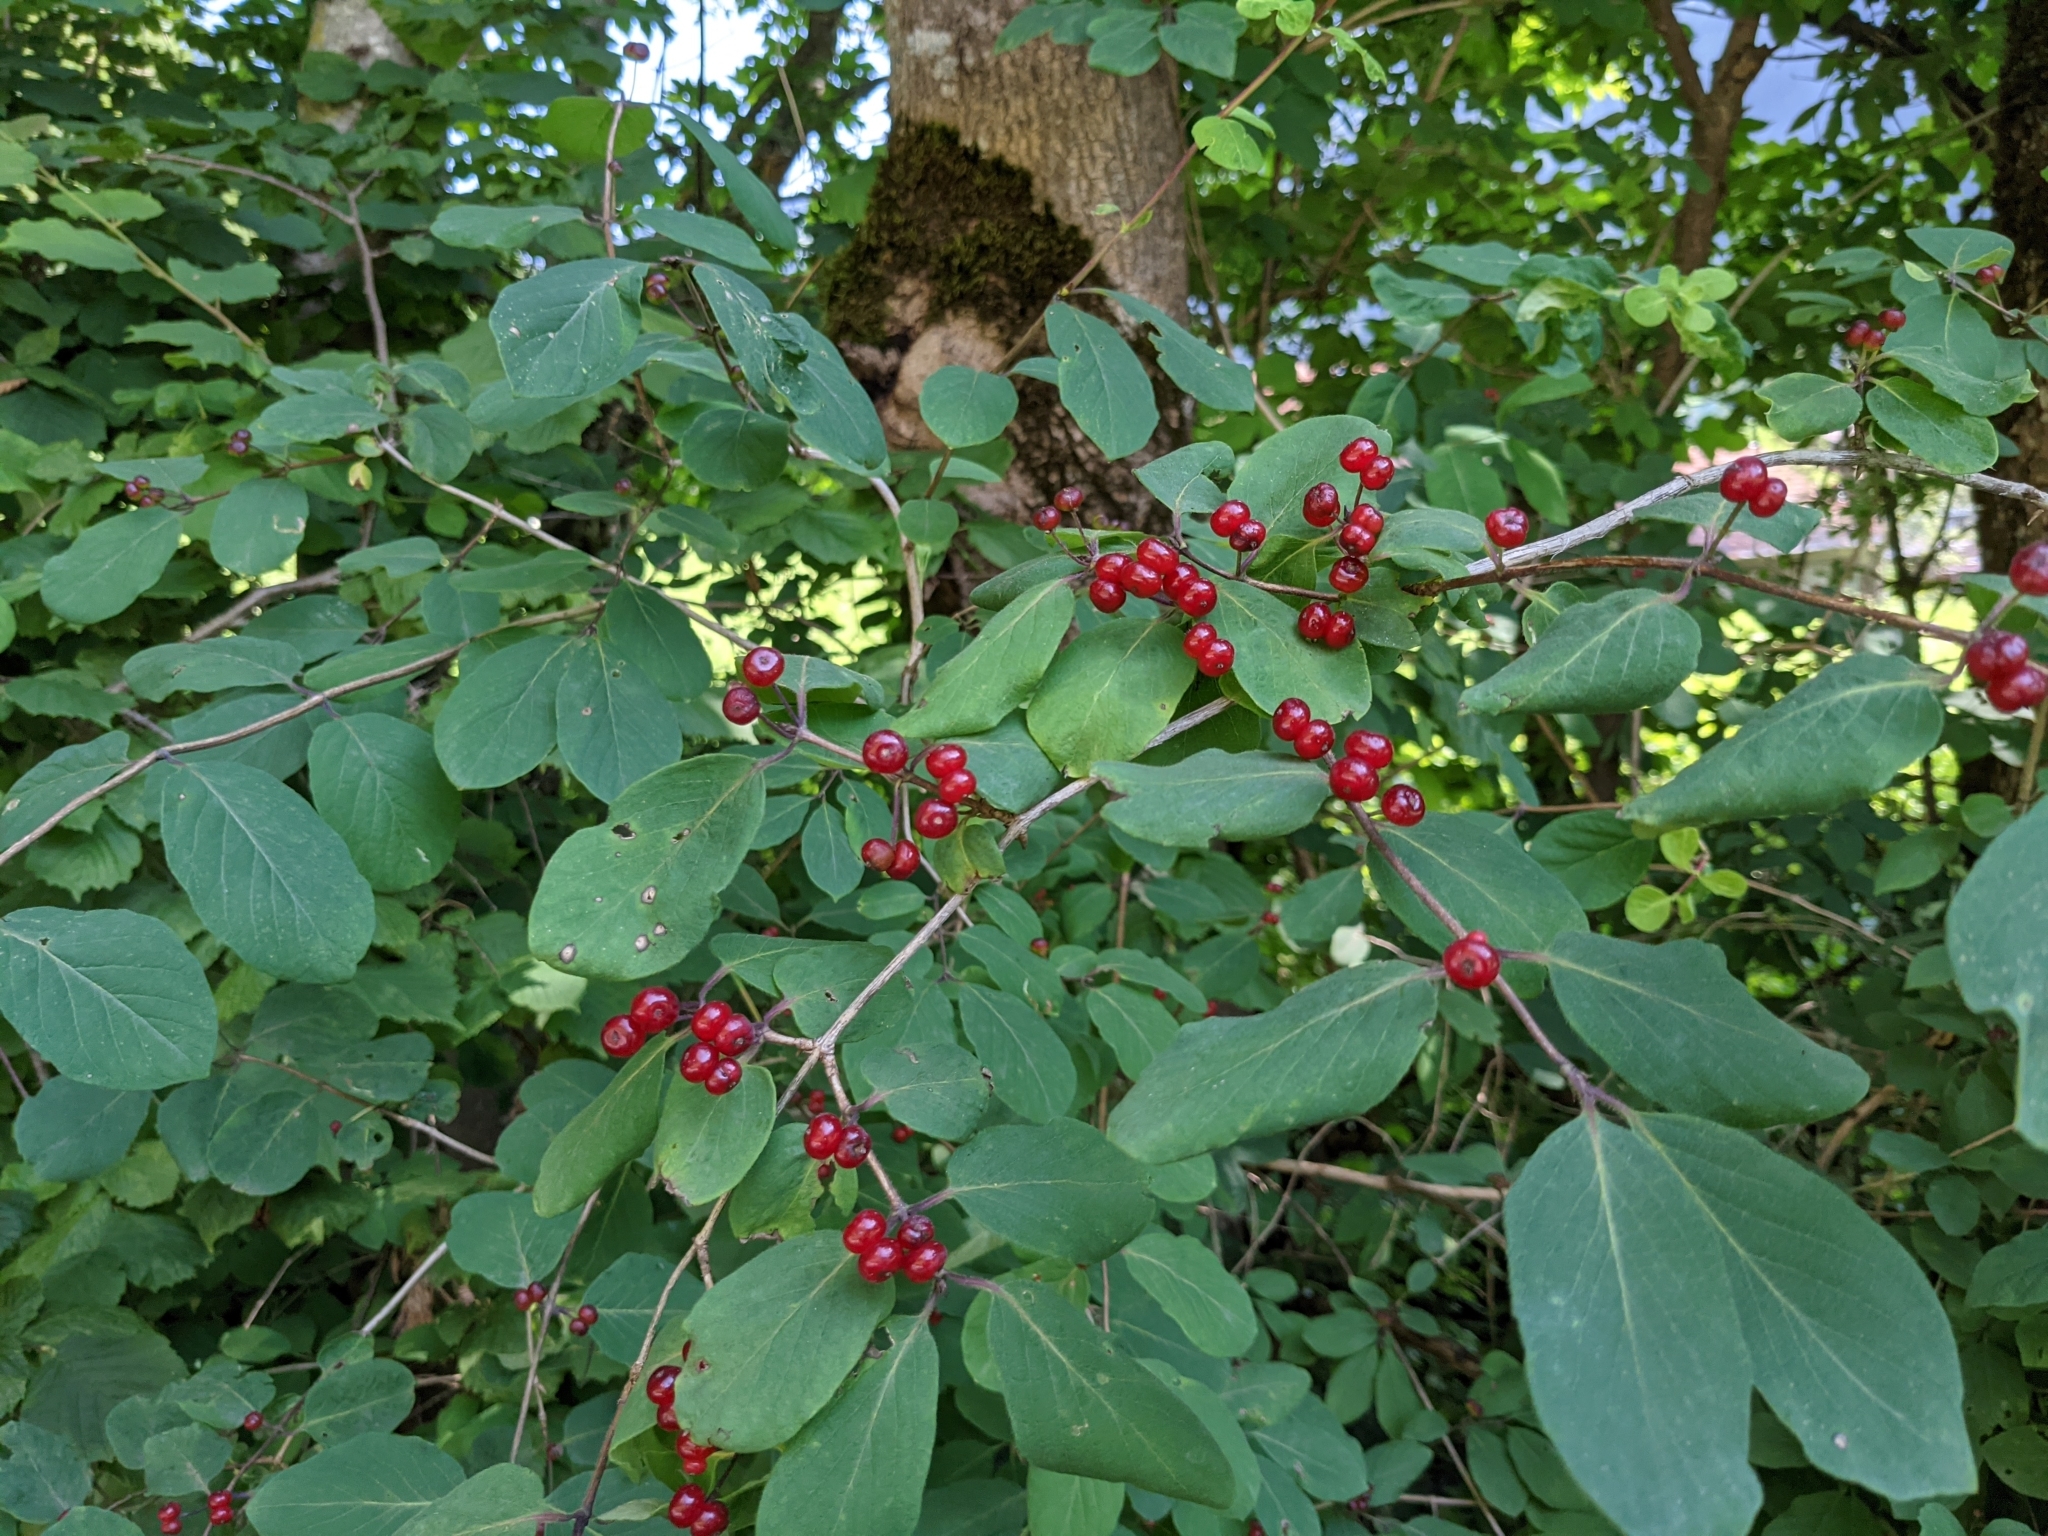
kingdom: Plantae
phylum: Tracheophyta
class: Magnoliopsida
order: Dipsacales
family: Caprifoliaceae
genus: Lonicera
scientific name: Lonicera xylosteum
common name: Fly honeysuckle
